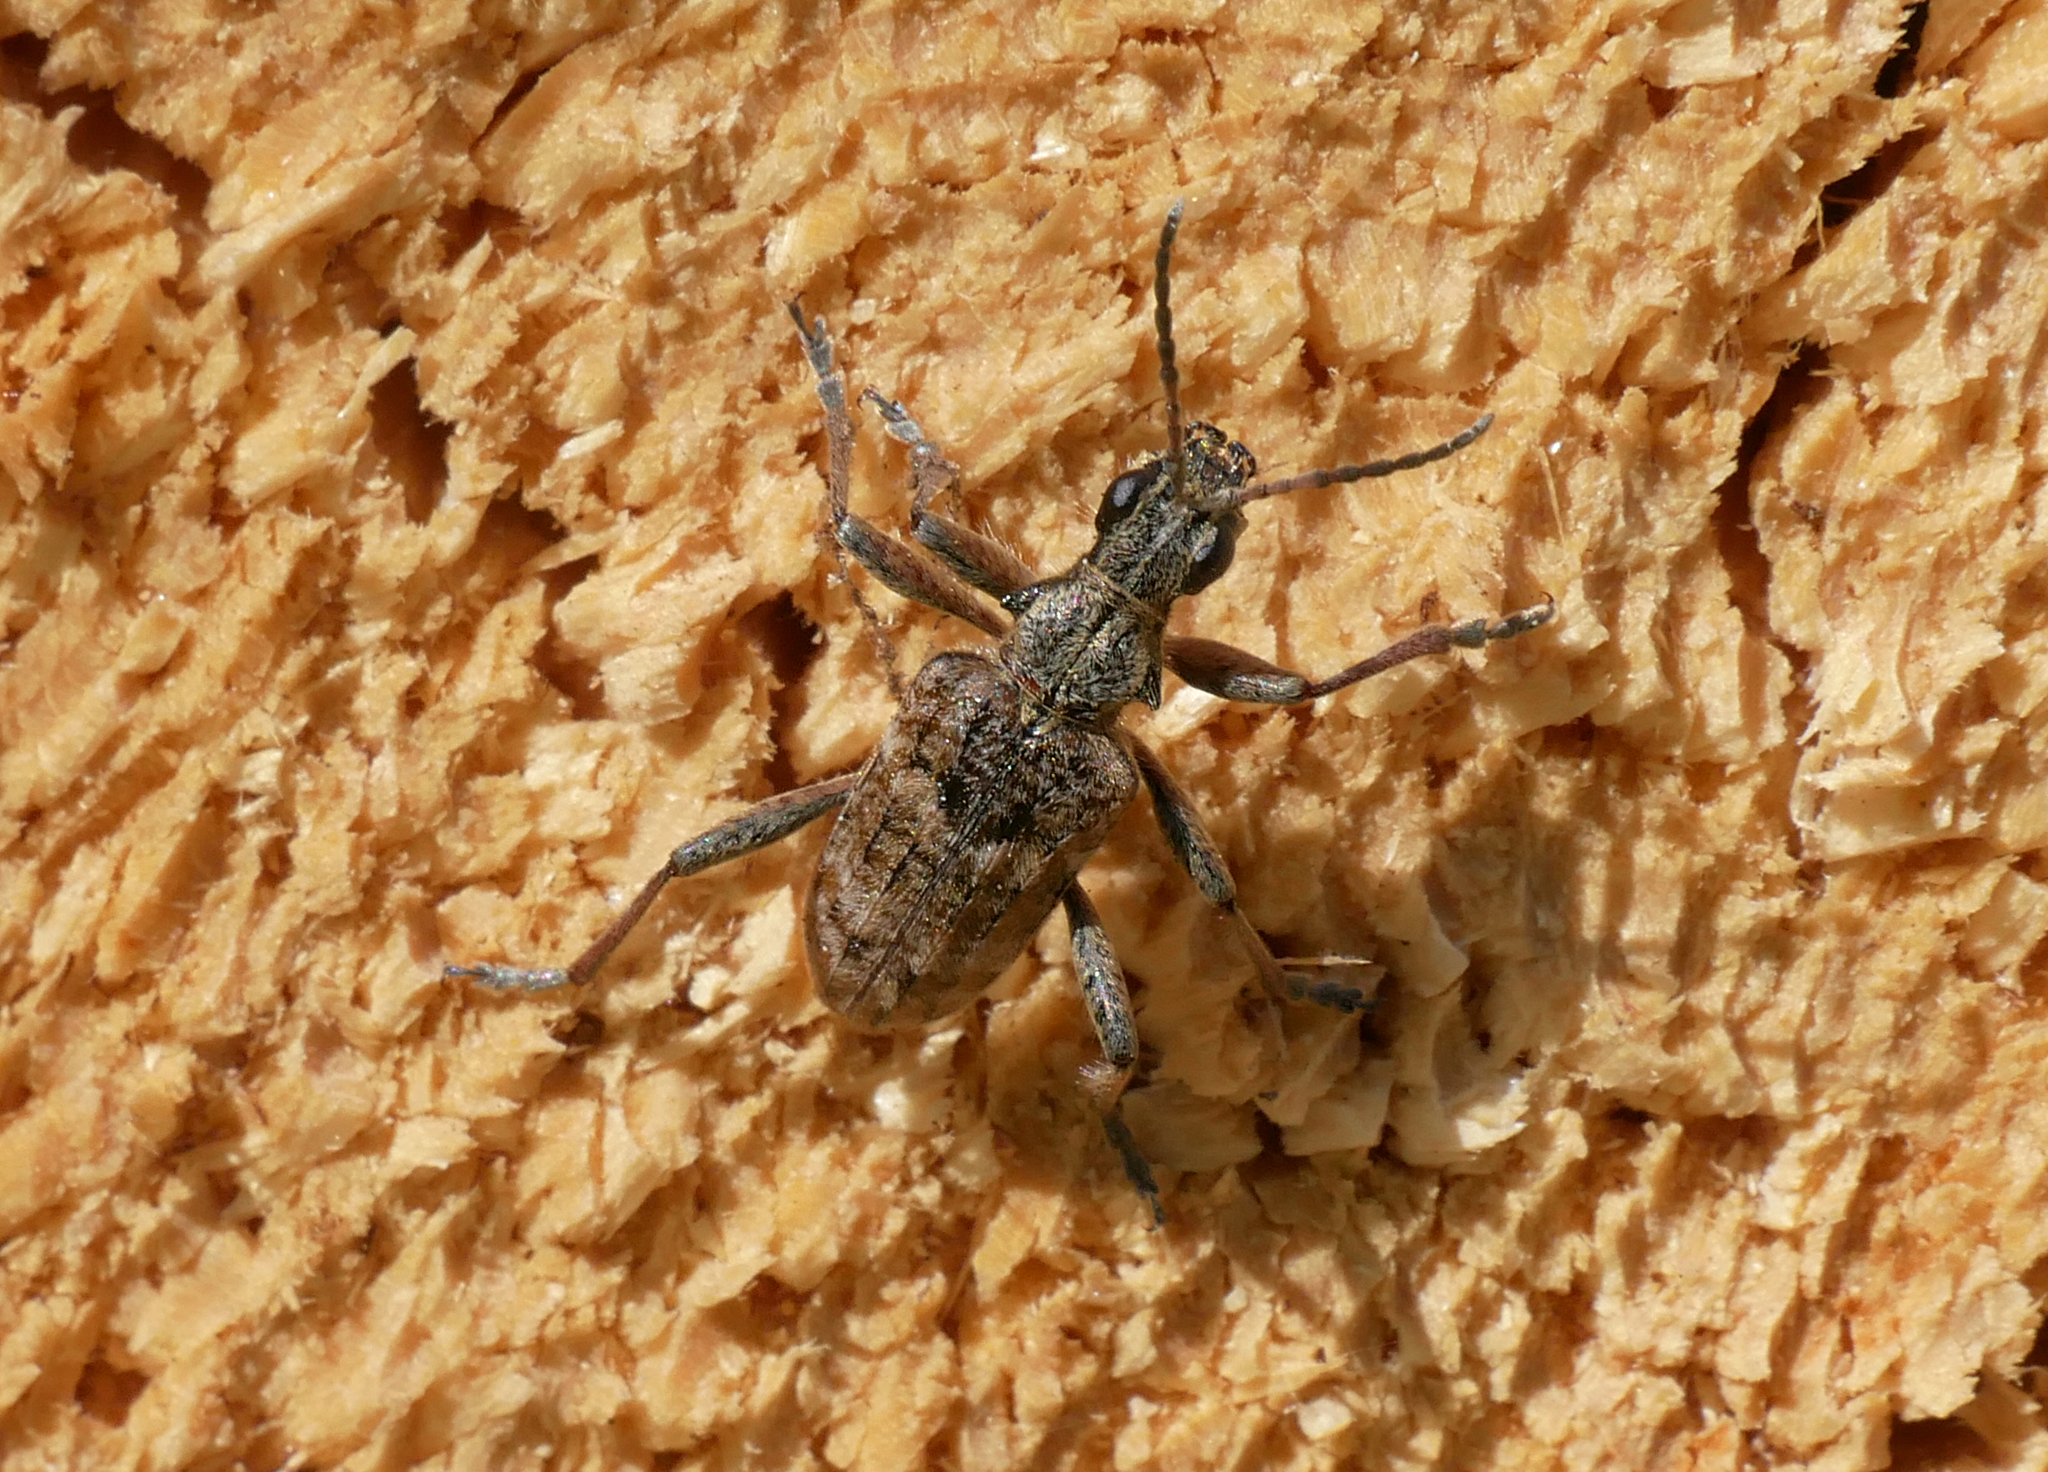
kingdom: Animalia
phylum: Arthropoda
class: Insecta
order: Coleoptera
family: Cerambycidae
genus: Rhagium
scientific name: Rhagium inquisitor
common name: Ribbed pine borer
